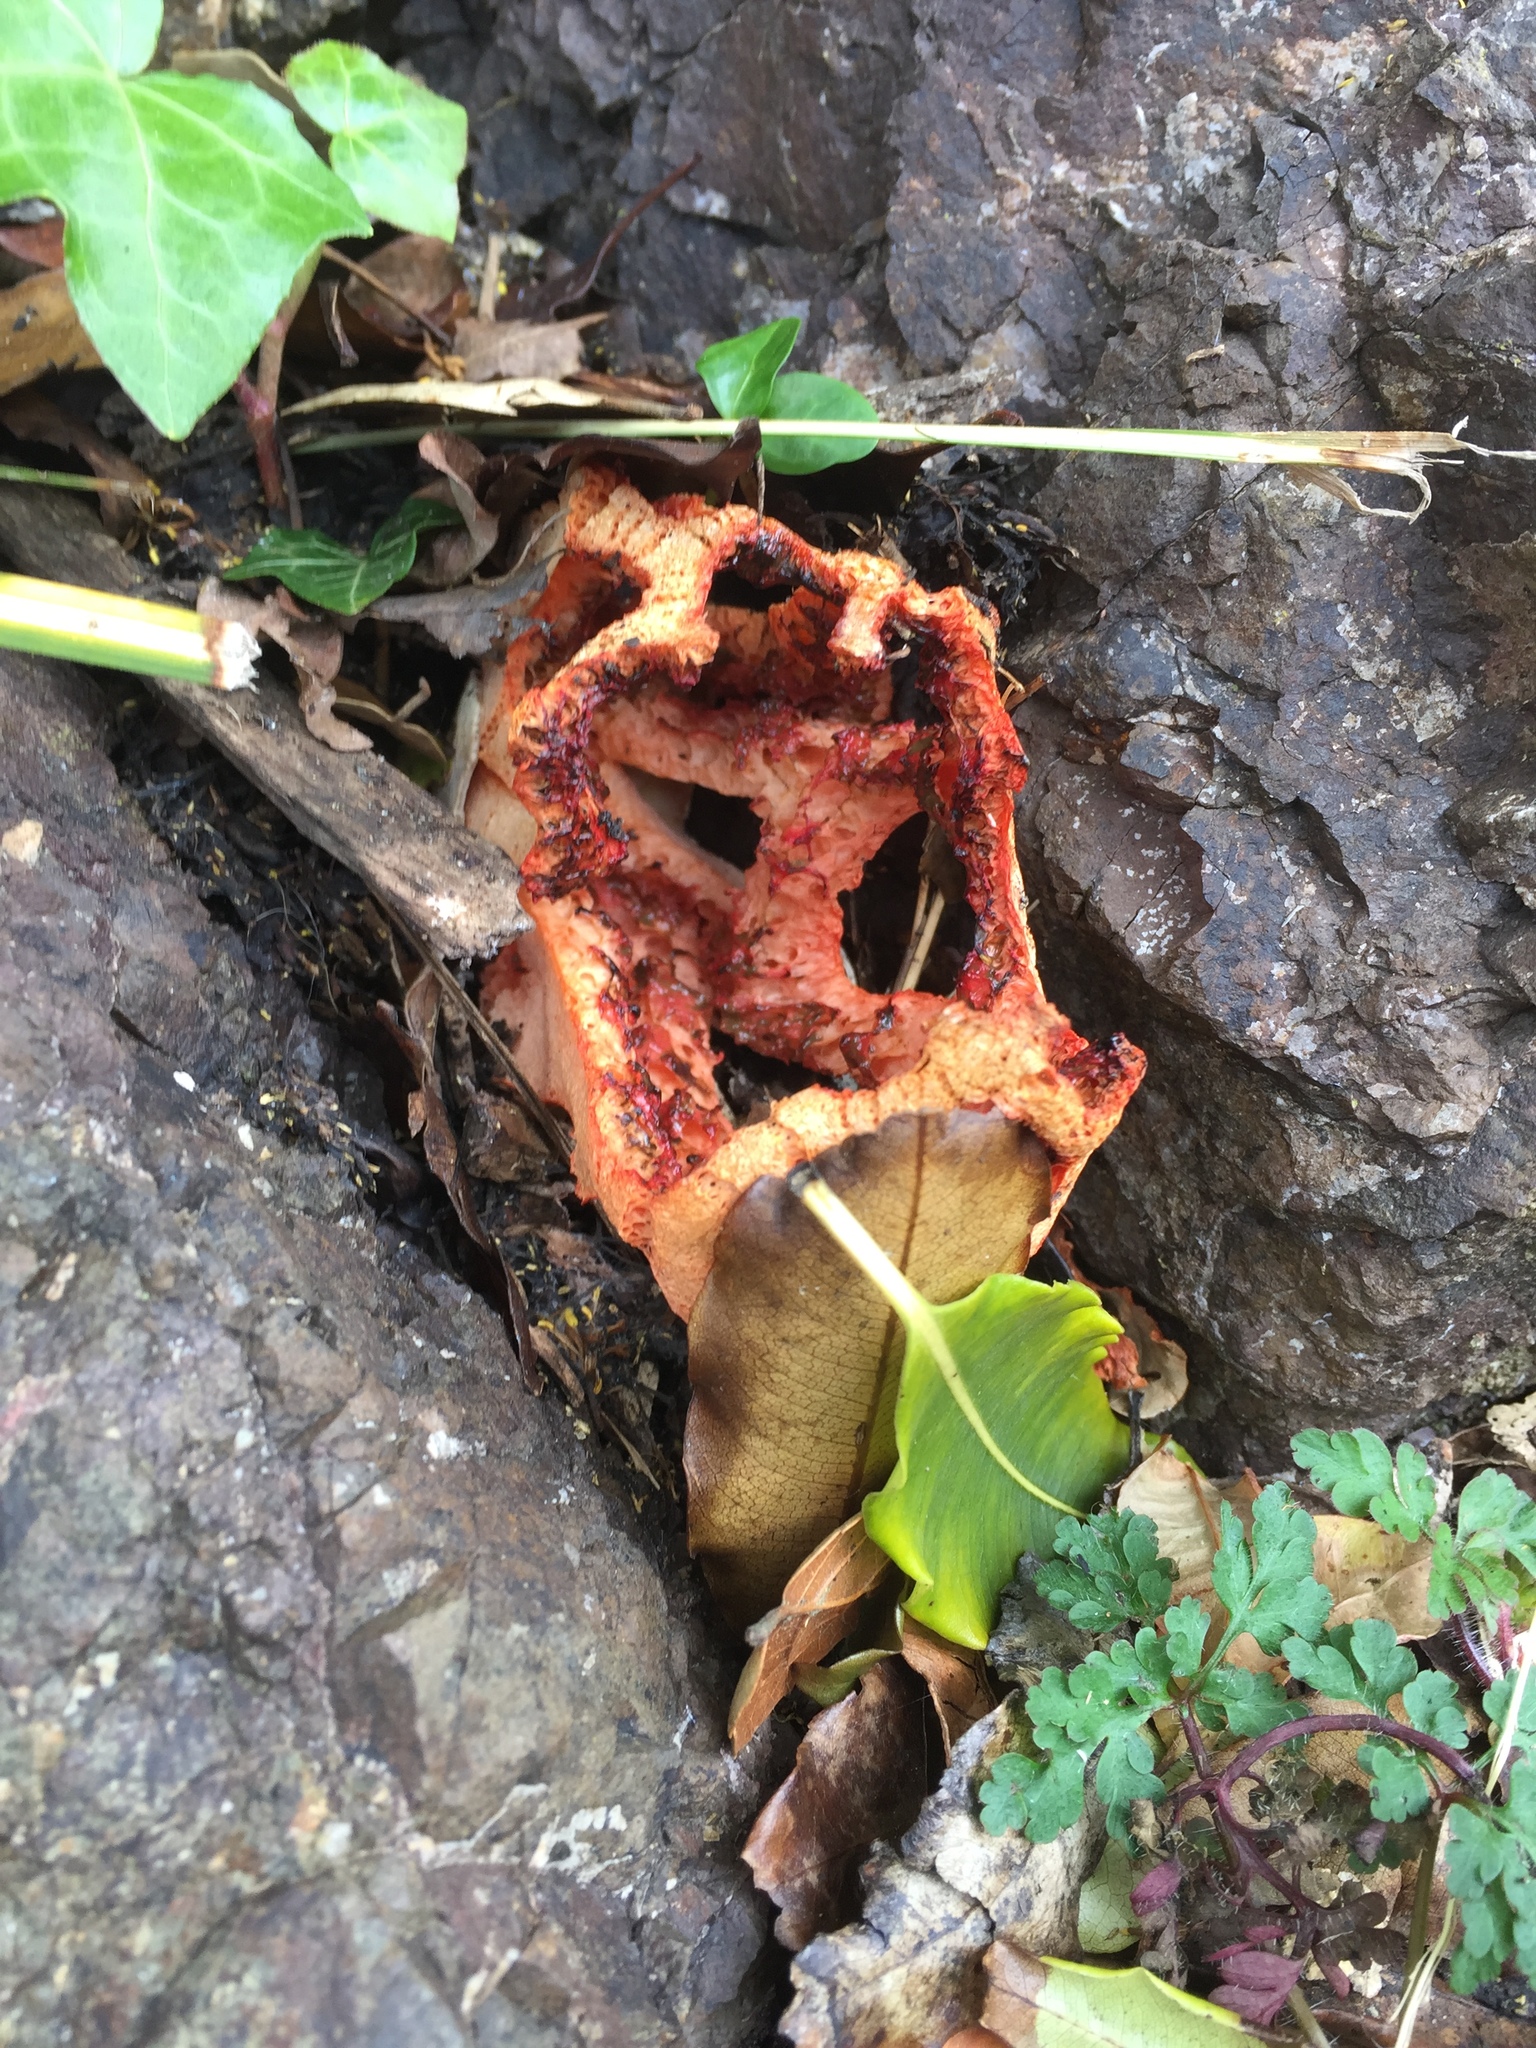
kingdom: Fungi
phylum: Basidiomycota
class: Agaricomycetes
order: Phallales
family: Phallaceae
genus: Clathrus
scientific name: Clathrus ruber
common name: Red cage
